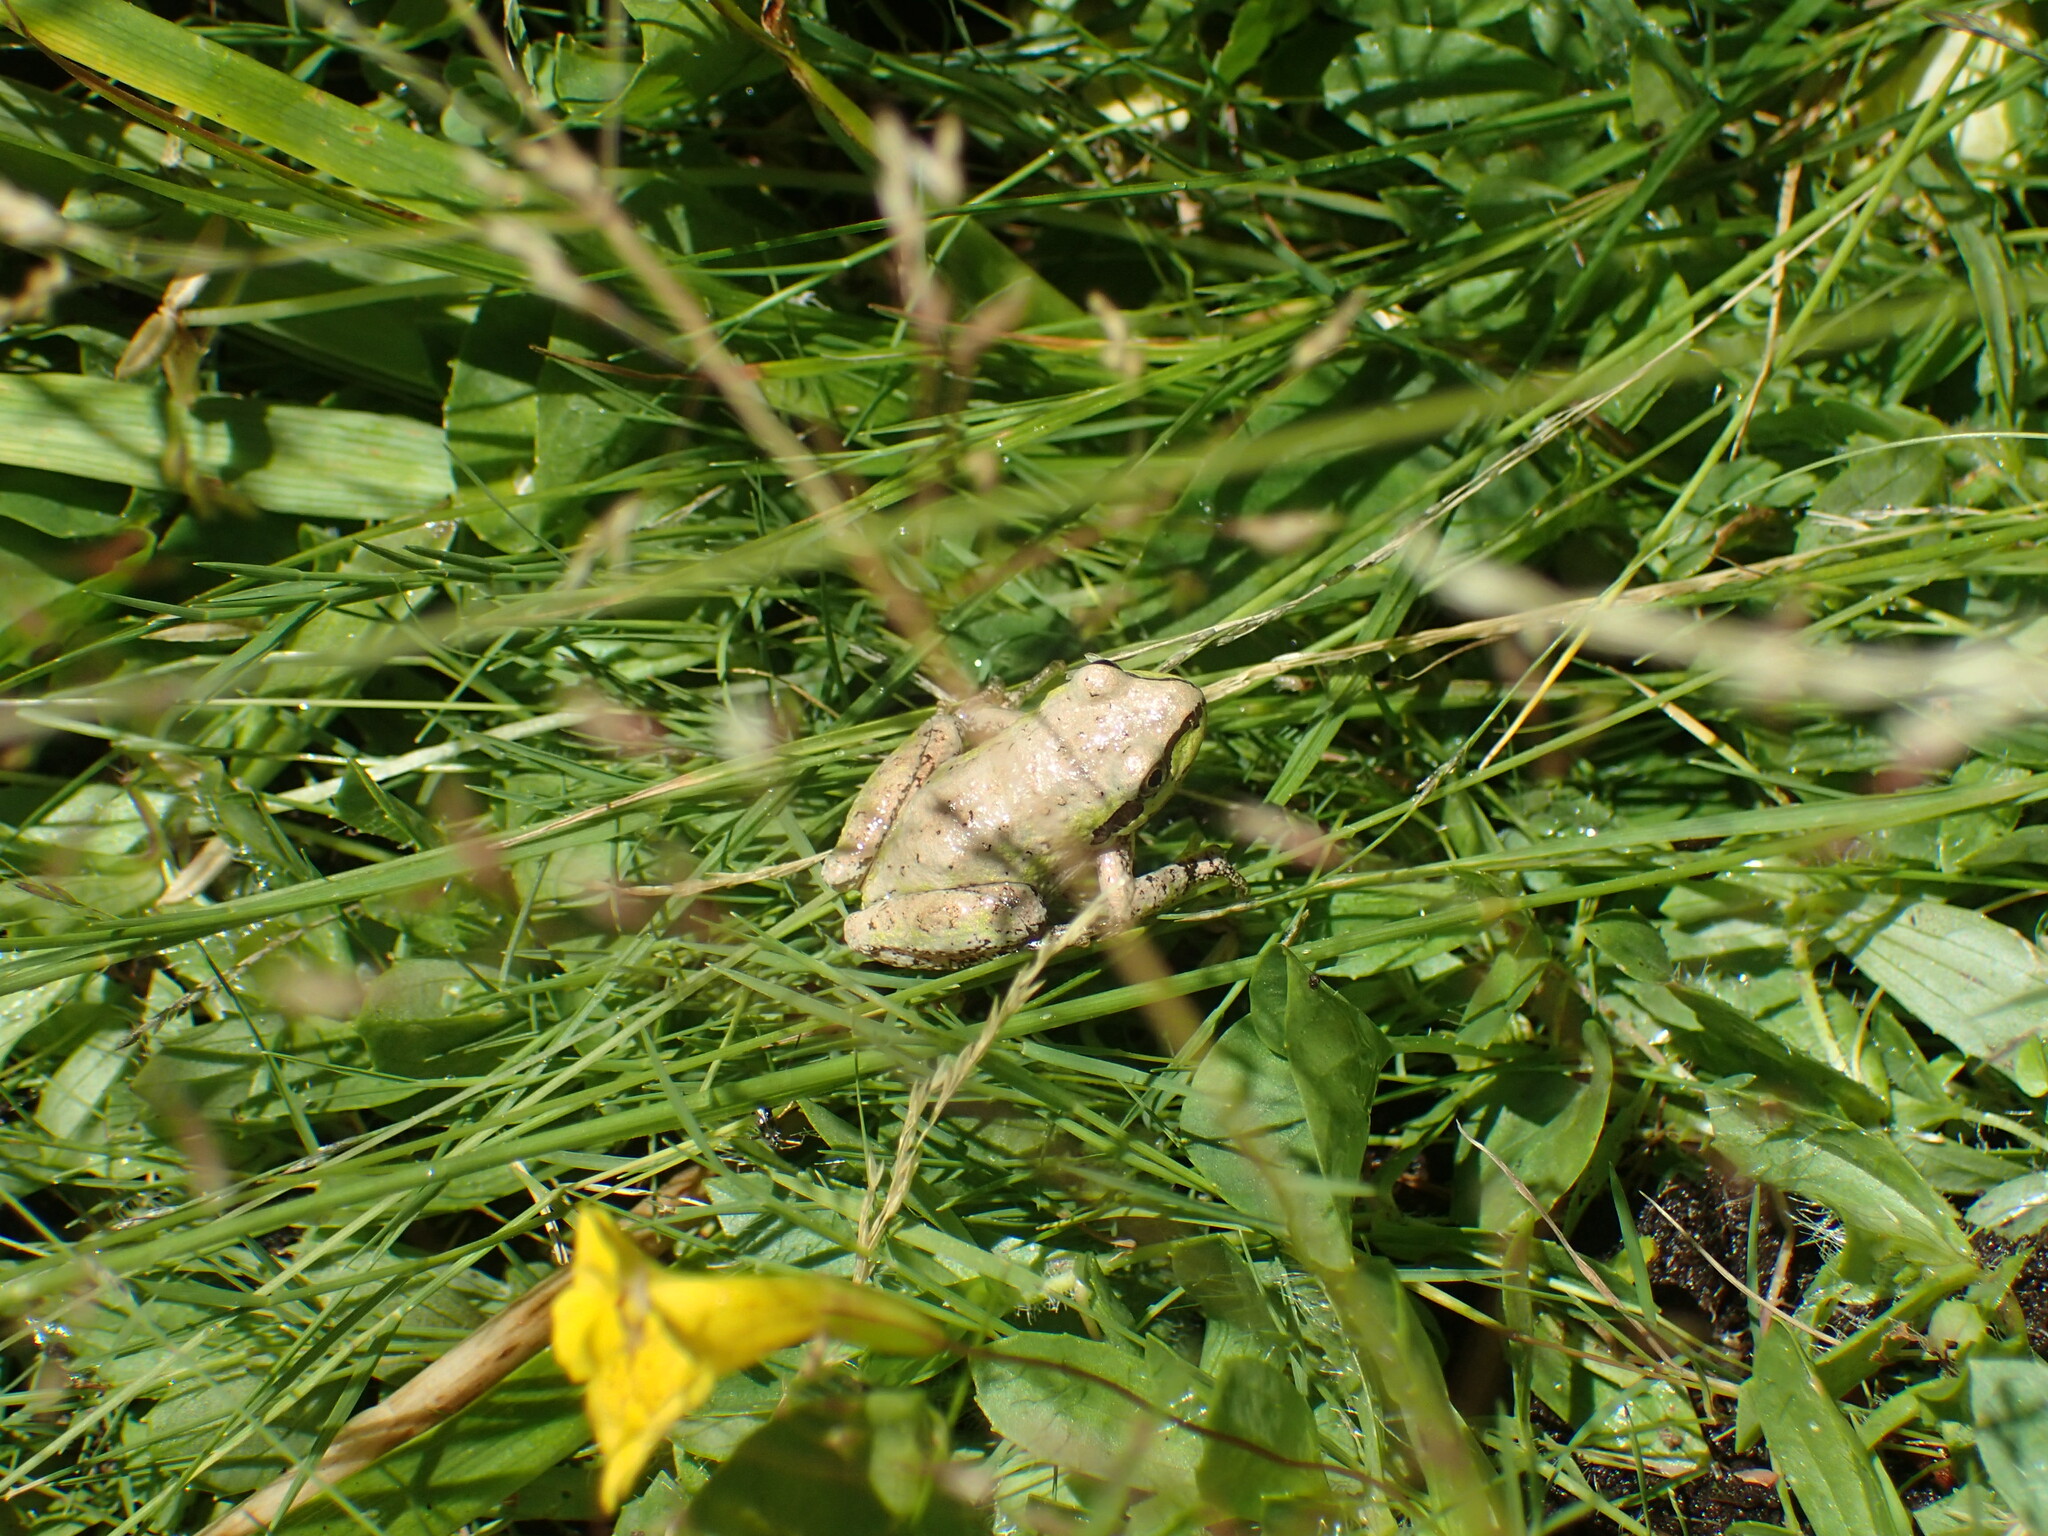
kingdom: Animalia
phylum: Chordata
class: Amphibia
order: Anura
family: Hylidae
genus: Pseudacris
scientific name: Pseudacris regilla
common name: Pacific chorus frog
